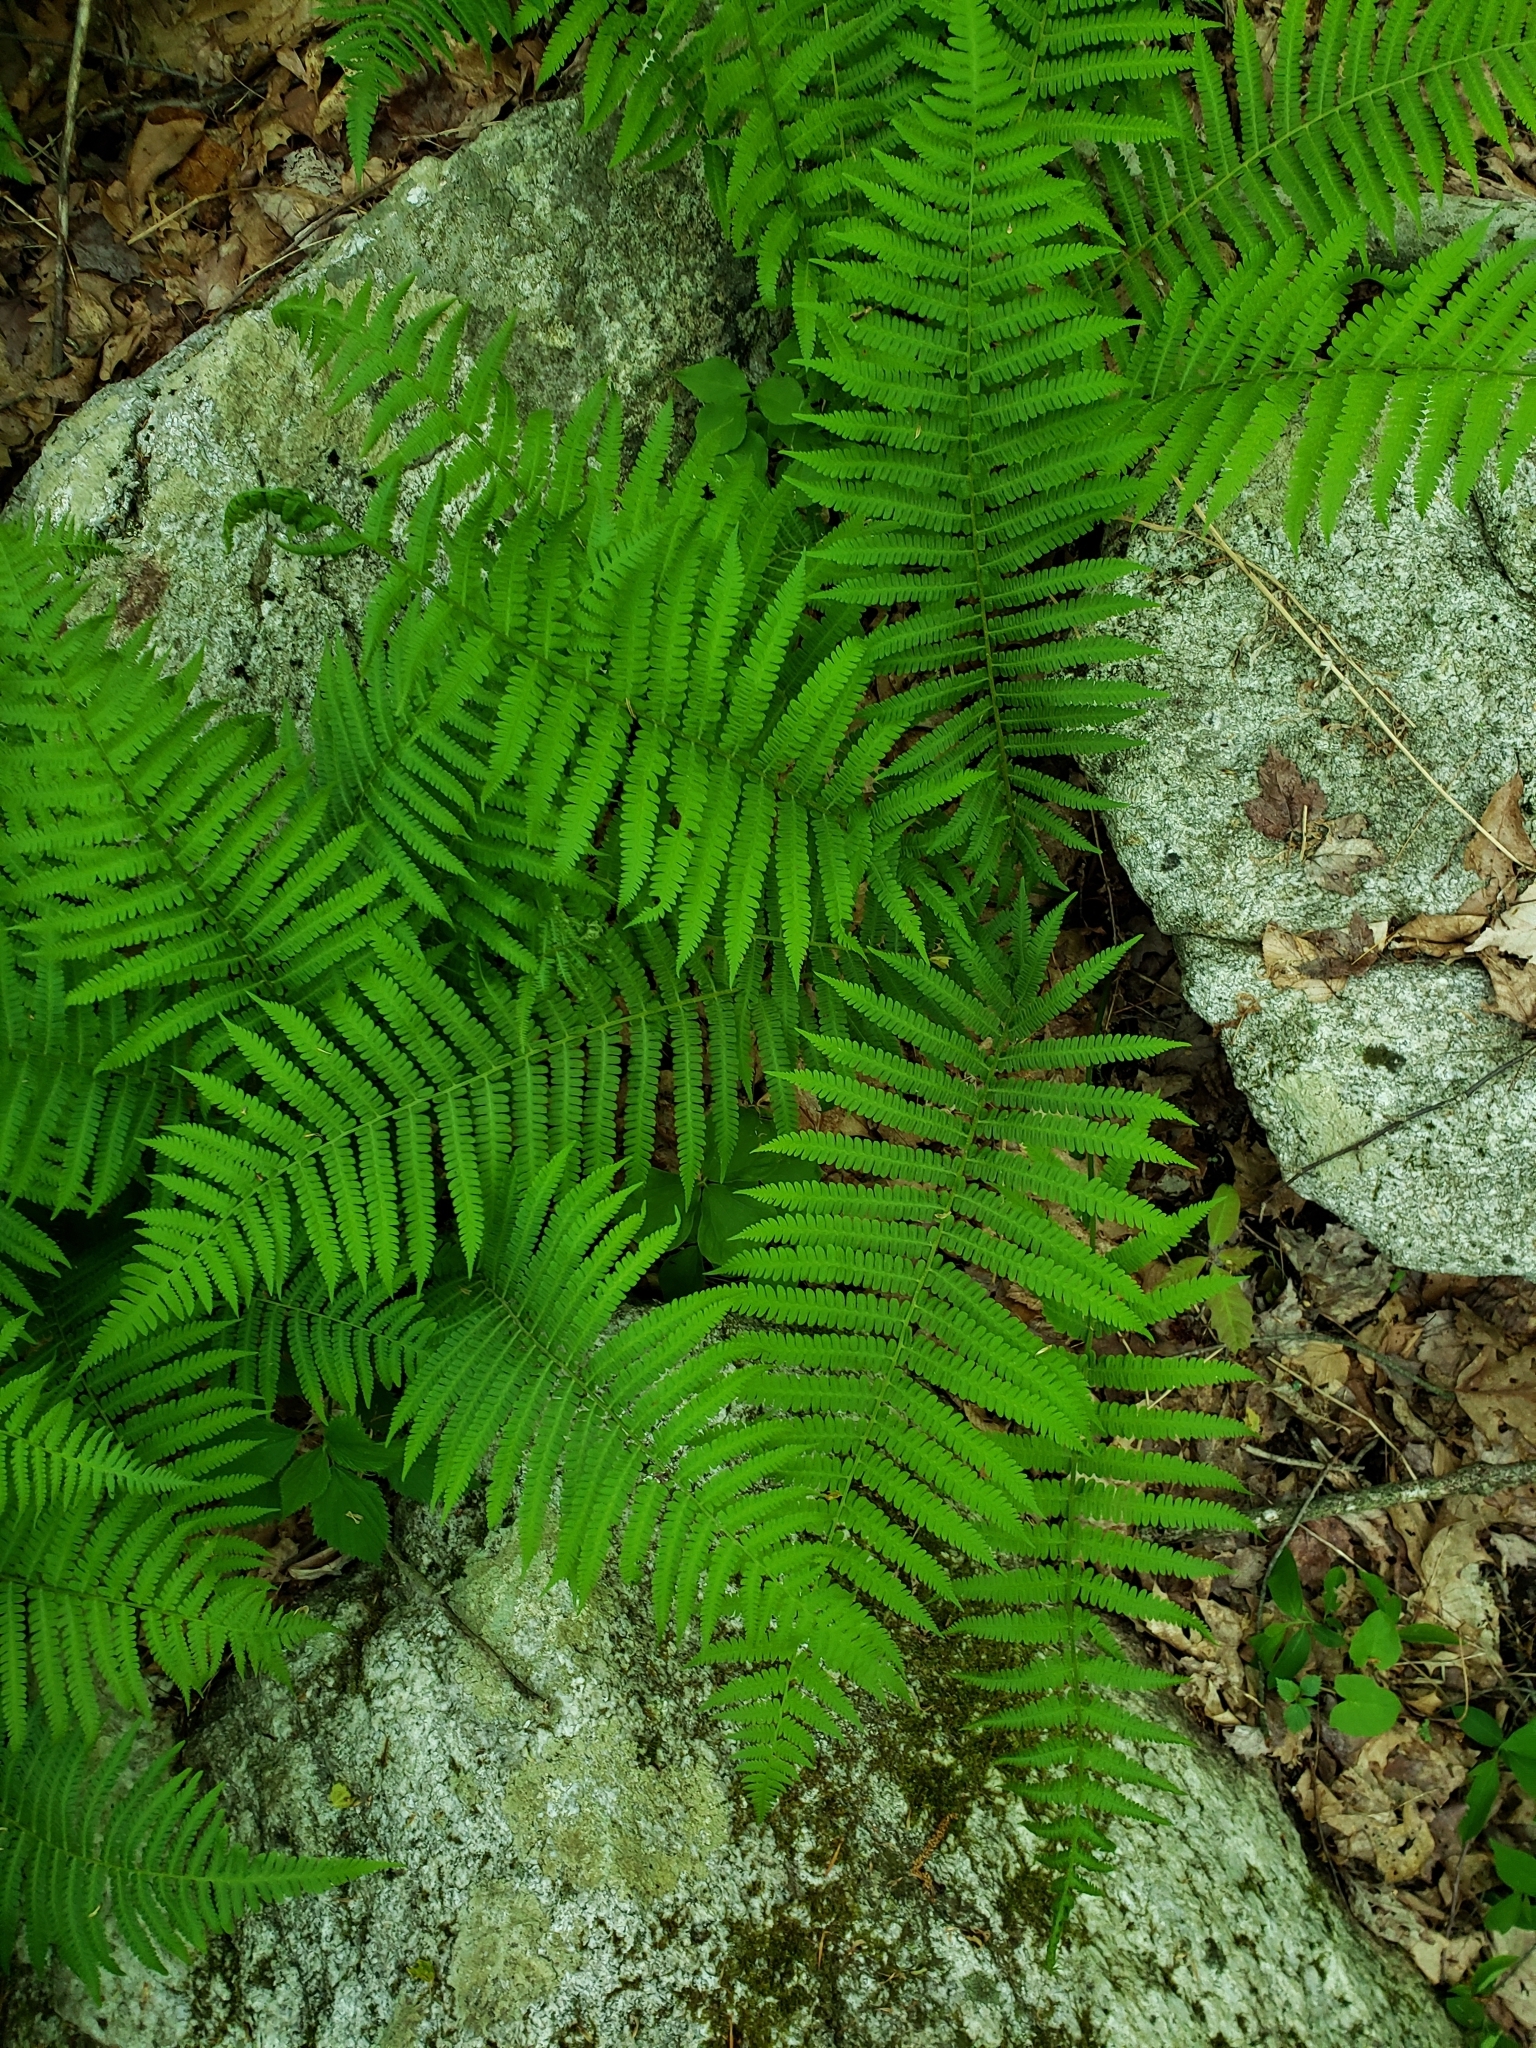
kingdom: Plantae
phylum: Tracheophyta
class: Polypodiopsida
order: Polypodiales
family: Athyriaceae
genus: Deparia
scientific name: Deparia acrostichoides
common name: Silver false spleenwort
